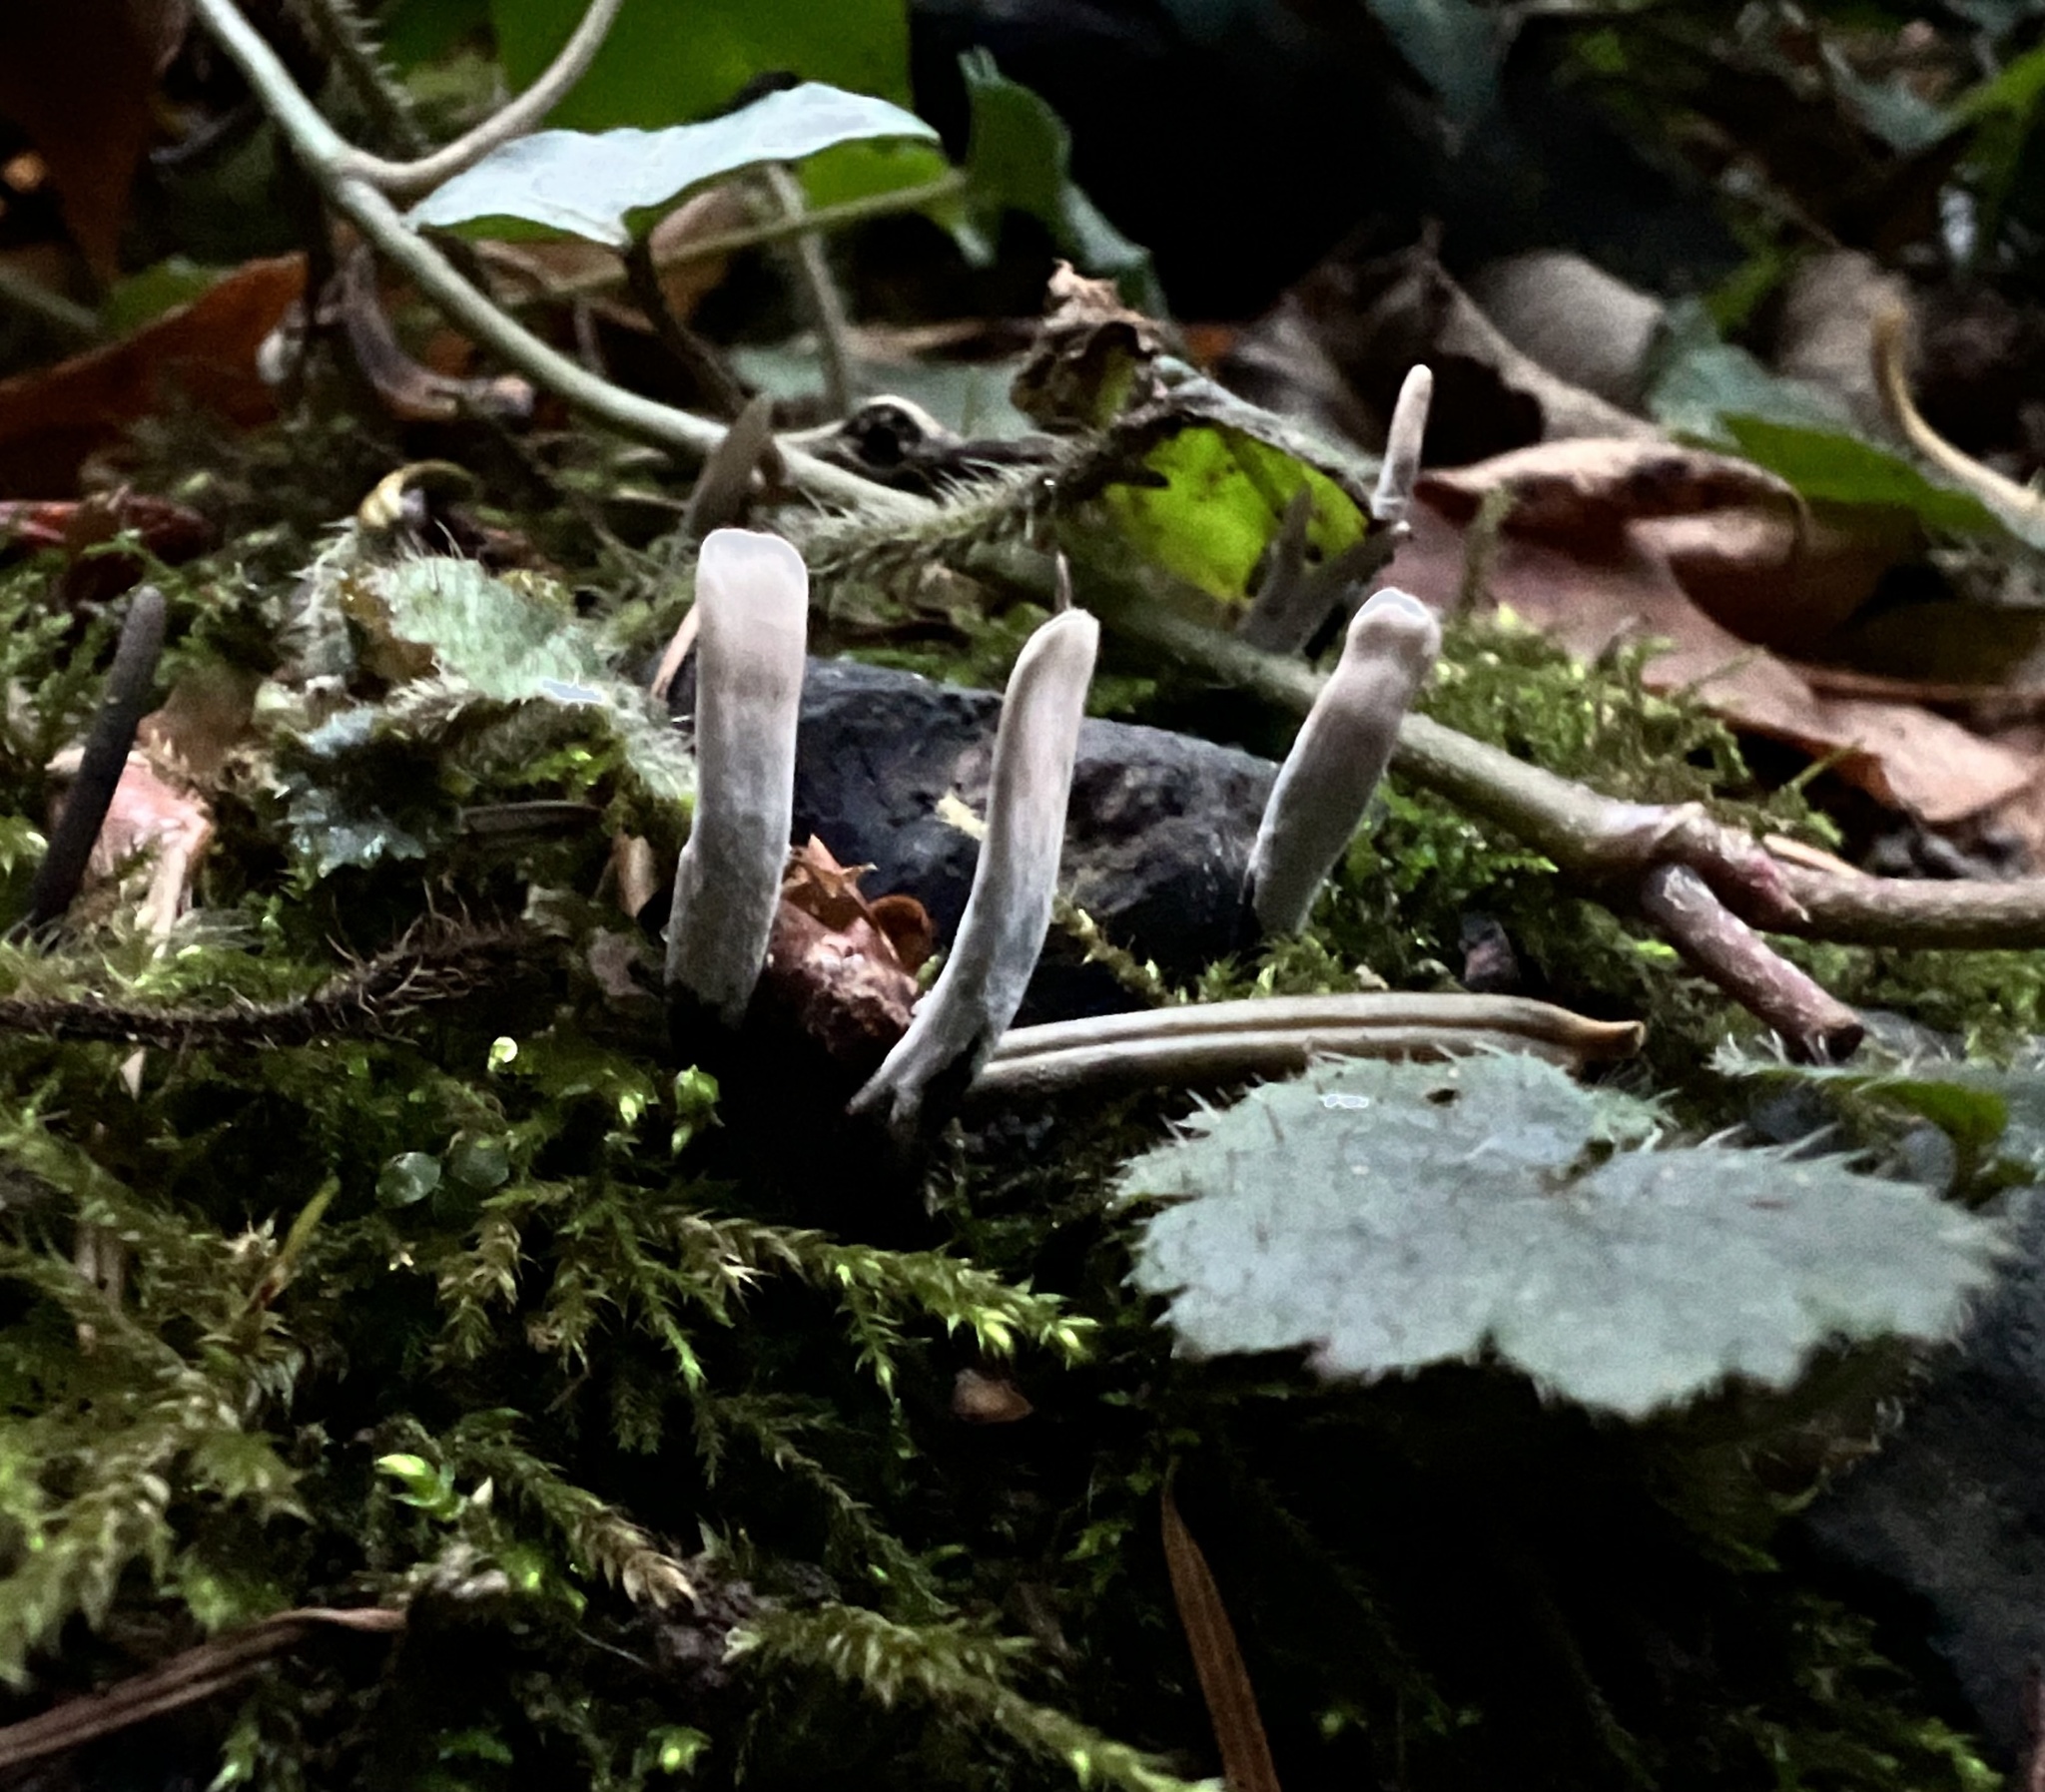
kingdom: Fungi
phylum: Ascomycota
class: Sordariomycetes
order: Xylariales
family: Xylariaceae
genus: Xylaria
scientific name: Xylaria hypoxylon
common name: Candle-snuff fungus
